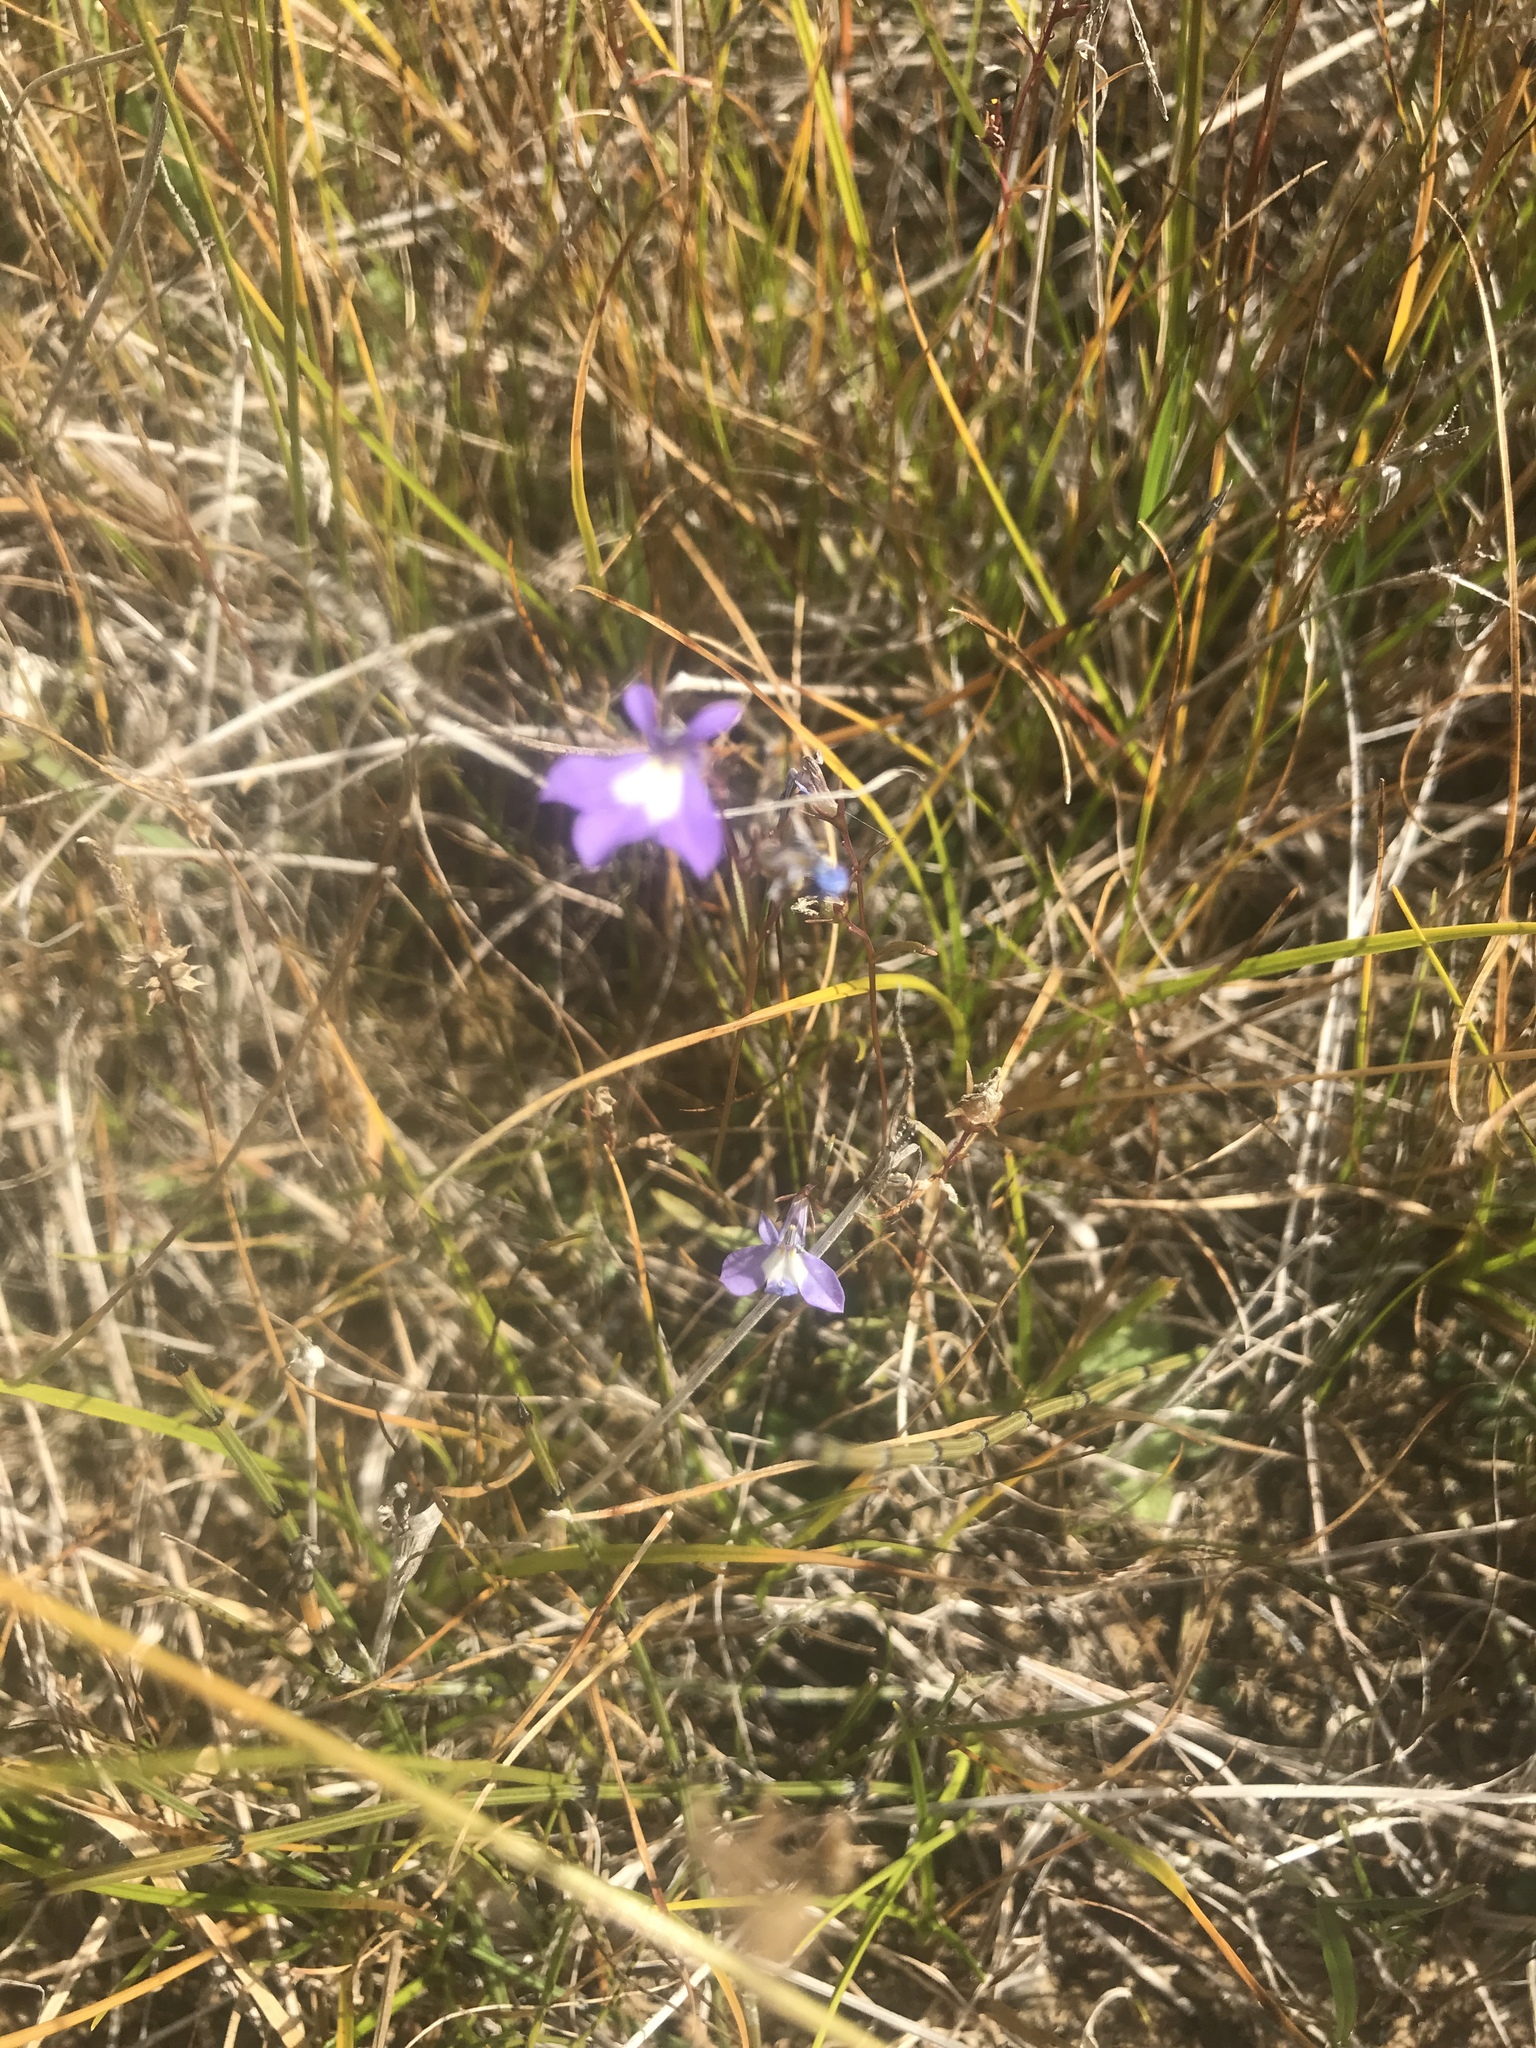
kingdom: Plantae
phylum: Tracheophyta
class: Magnoliopsida
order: Asterales
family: Campanulaceae
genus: Lobelia
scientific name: Lobelia kalmii
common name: Kalm's lobelia
